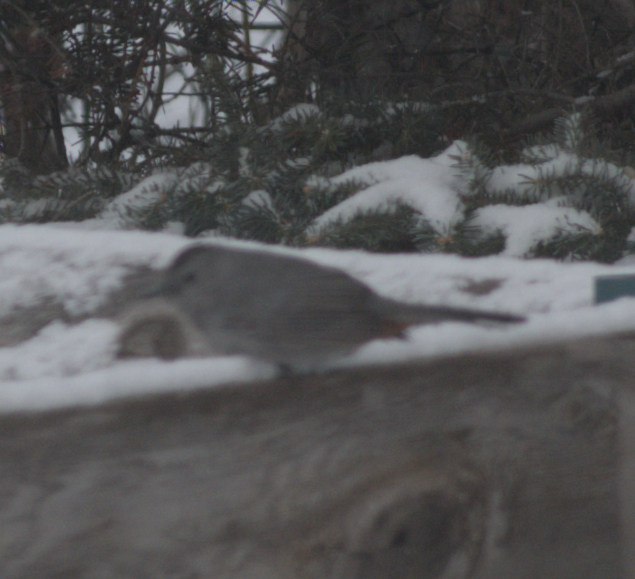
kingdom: Animalia
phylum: Chordata
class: Aves
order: Passeriformes
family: Mimidae
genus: Dumetella
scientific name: Dumetella carolinensis
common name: Gray catbird
